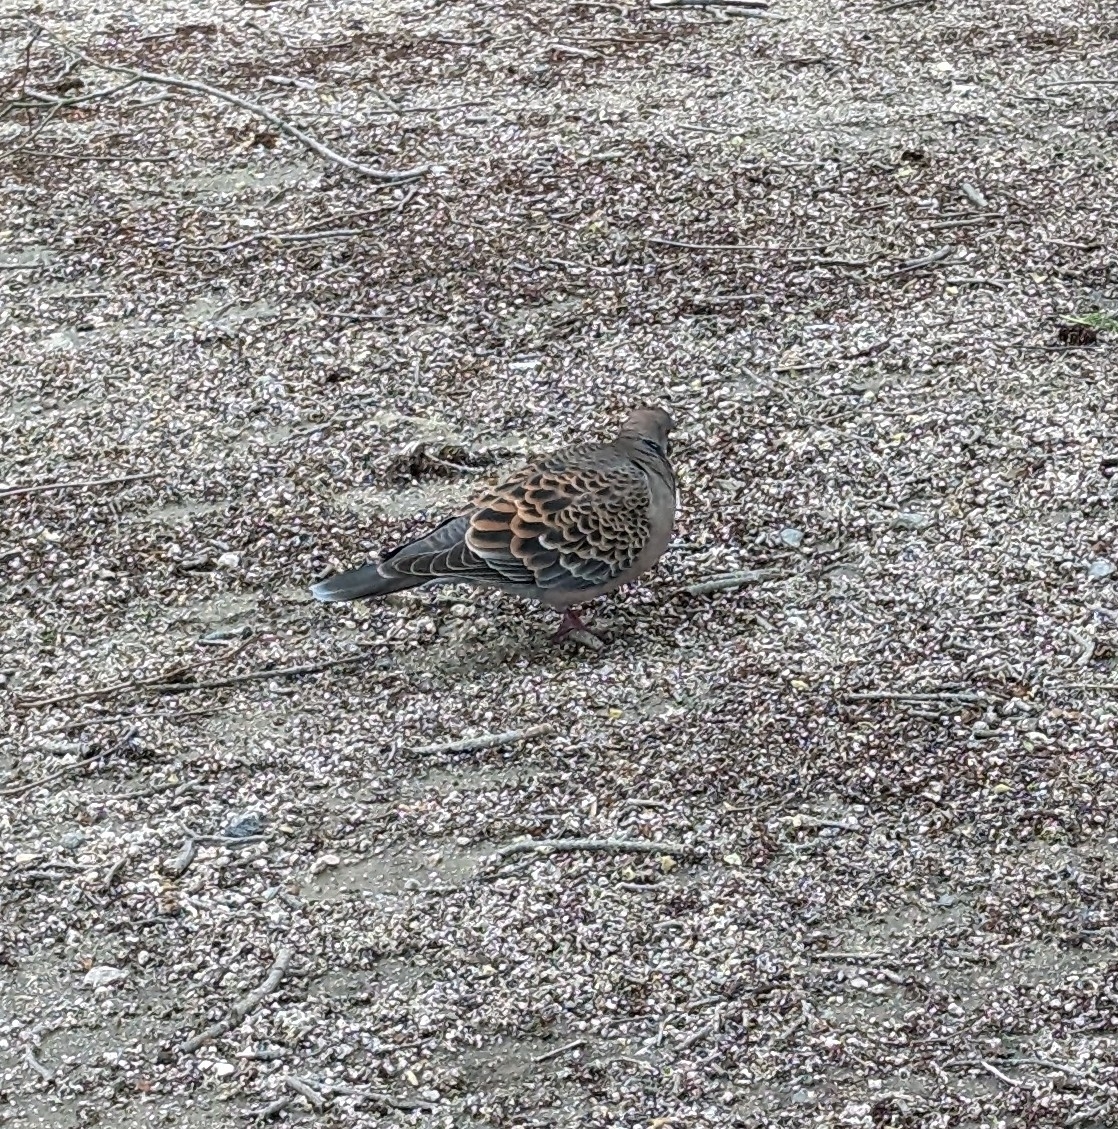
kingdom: Animalia
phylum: Chordata
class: Aves
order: Columbiformes
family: Columbidae
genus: Streptopelia
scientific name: Streptopelia orientalis
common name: Oriental turtle dove
